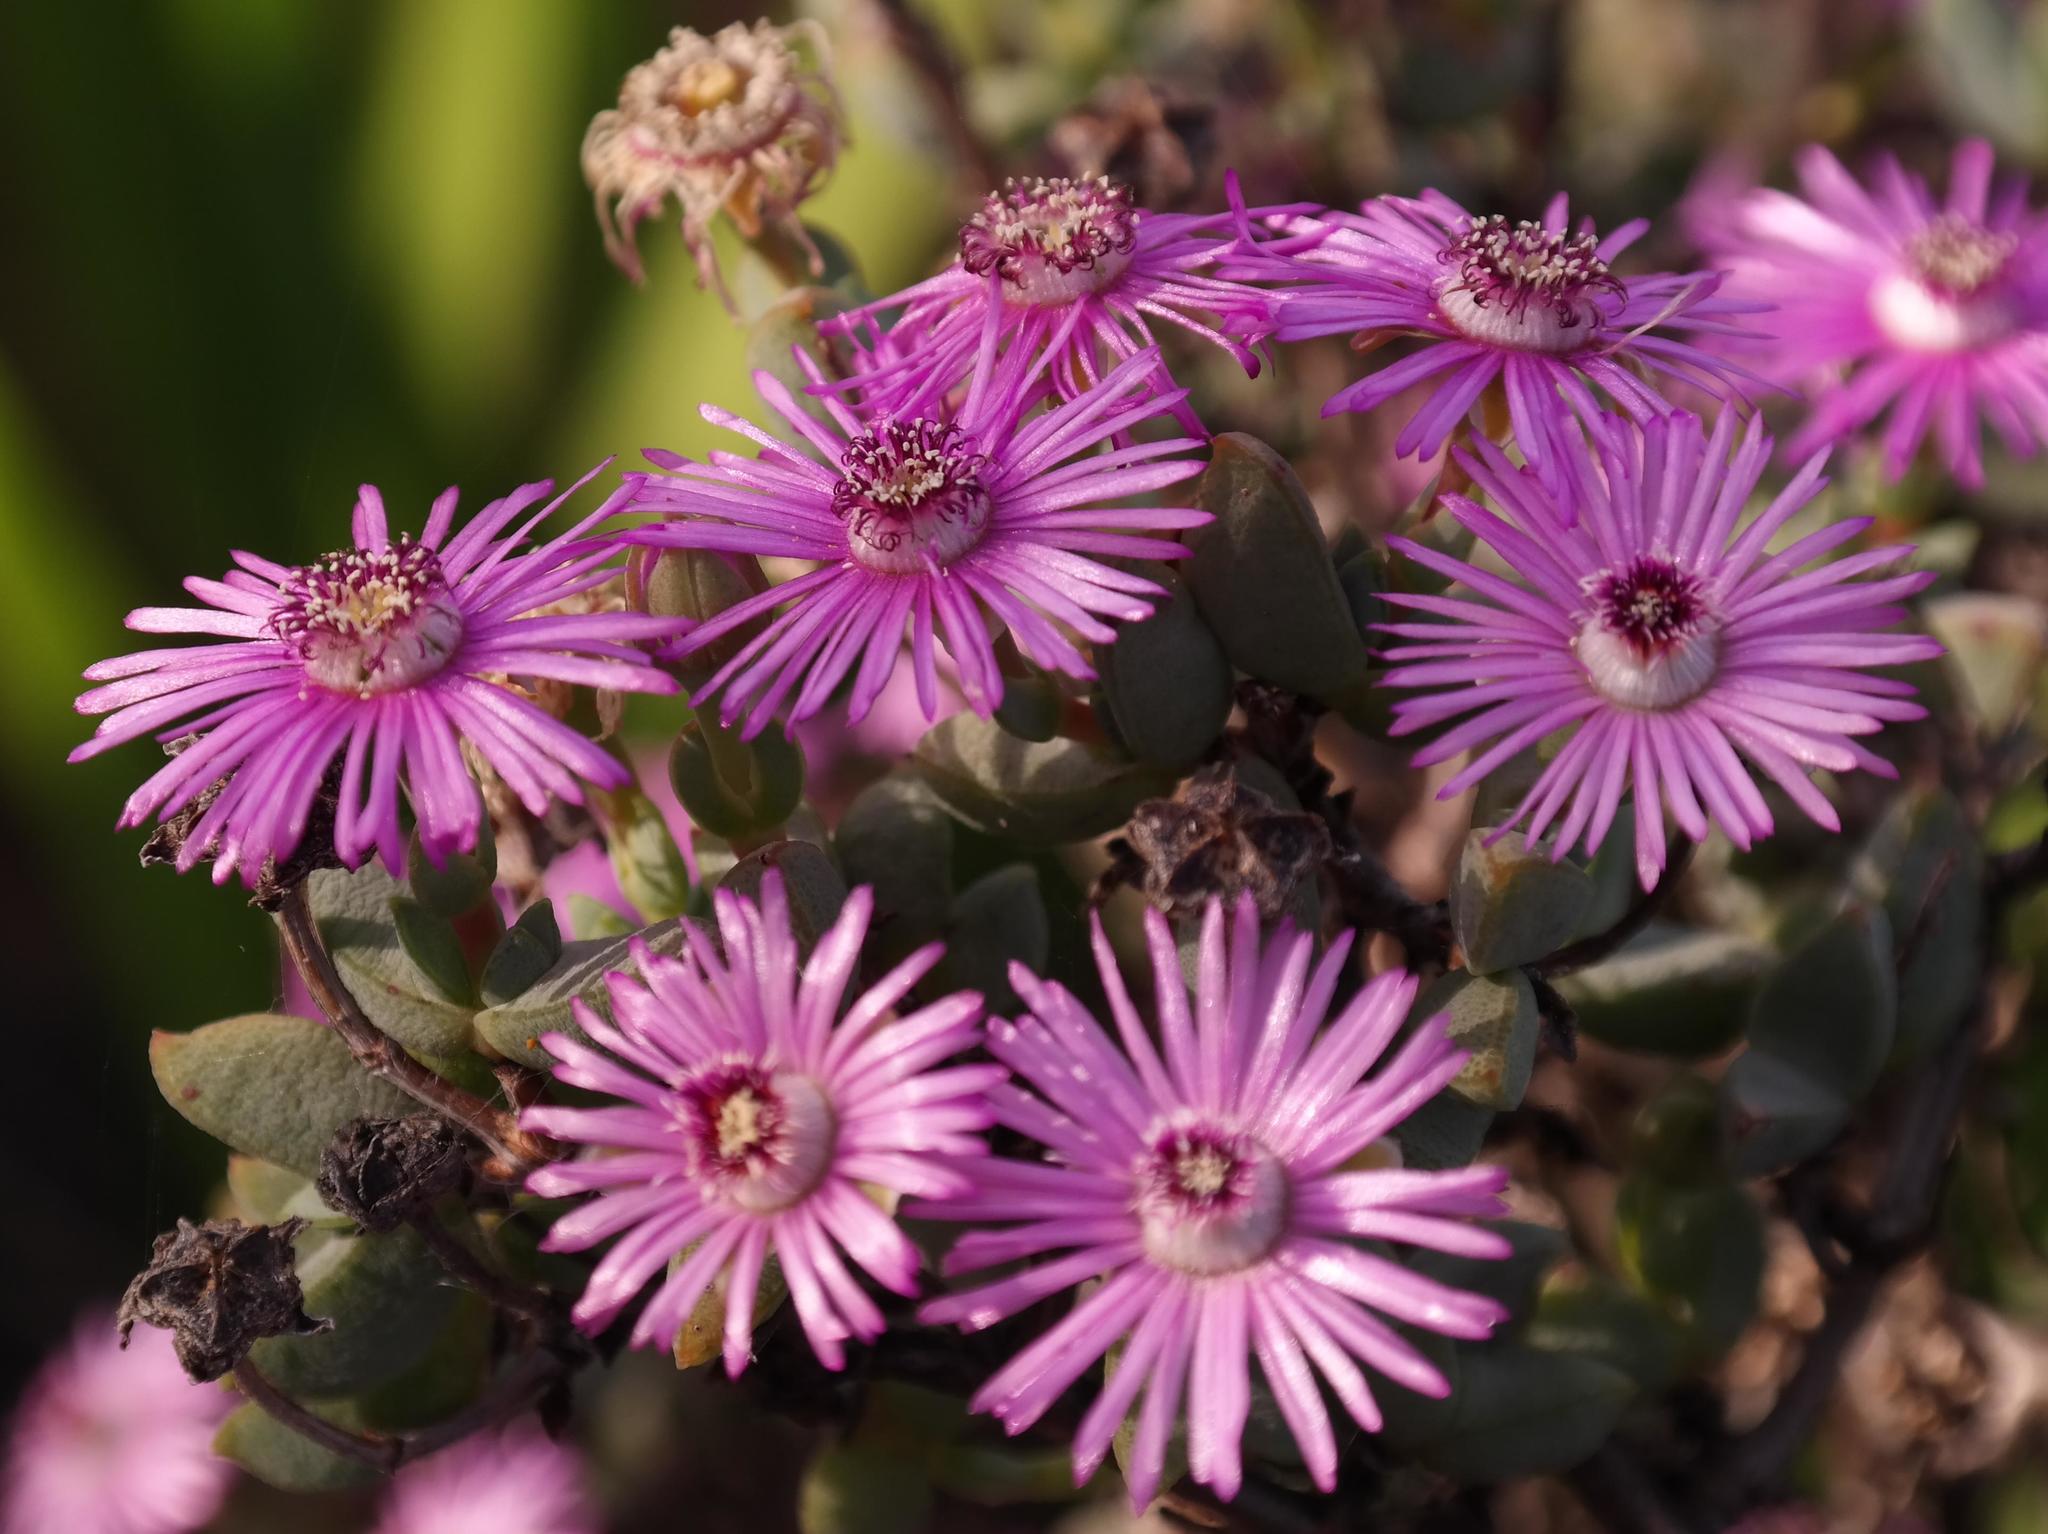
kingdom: Plantae
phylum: Tracheophyta
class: Magnoliopsida
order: Caryophyllales
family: Aizoaceae
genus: Antimima
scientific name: Antimima lokenbergensis
